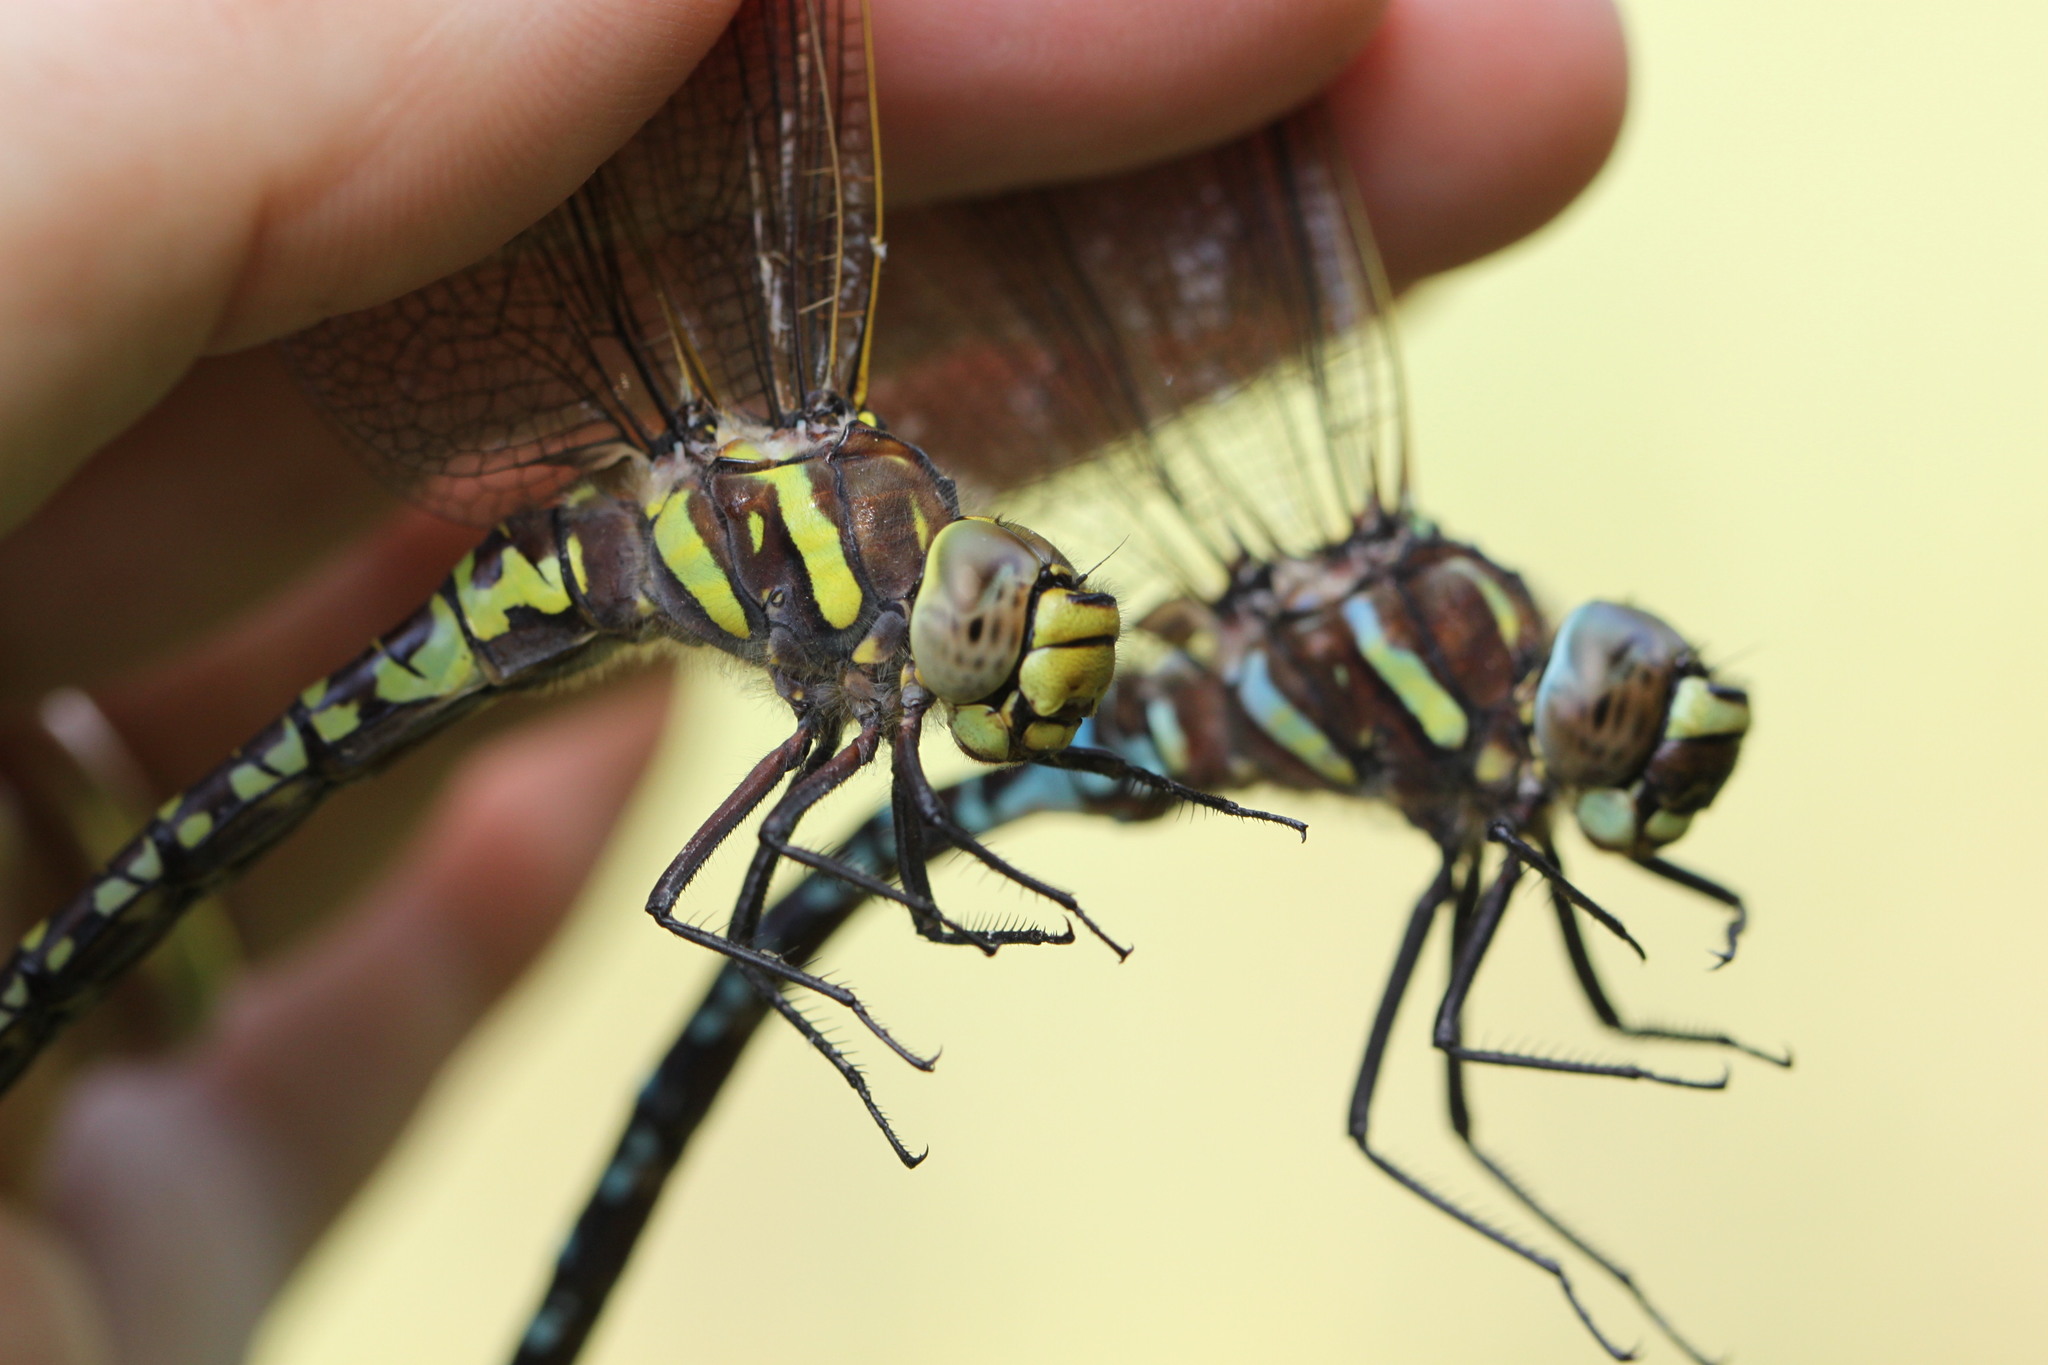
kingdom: Animalia
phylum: Arthropoda
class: Insecta
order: Odonata
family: Aeshnidae
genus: Aeshna
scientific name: Aeshna juncea
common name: Moorland hawker
